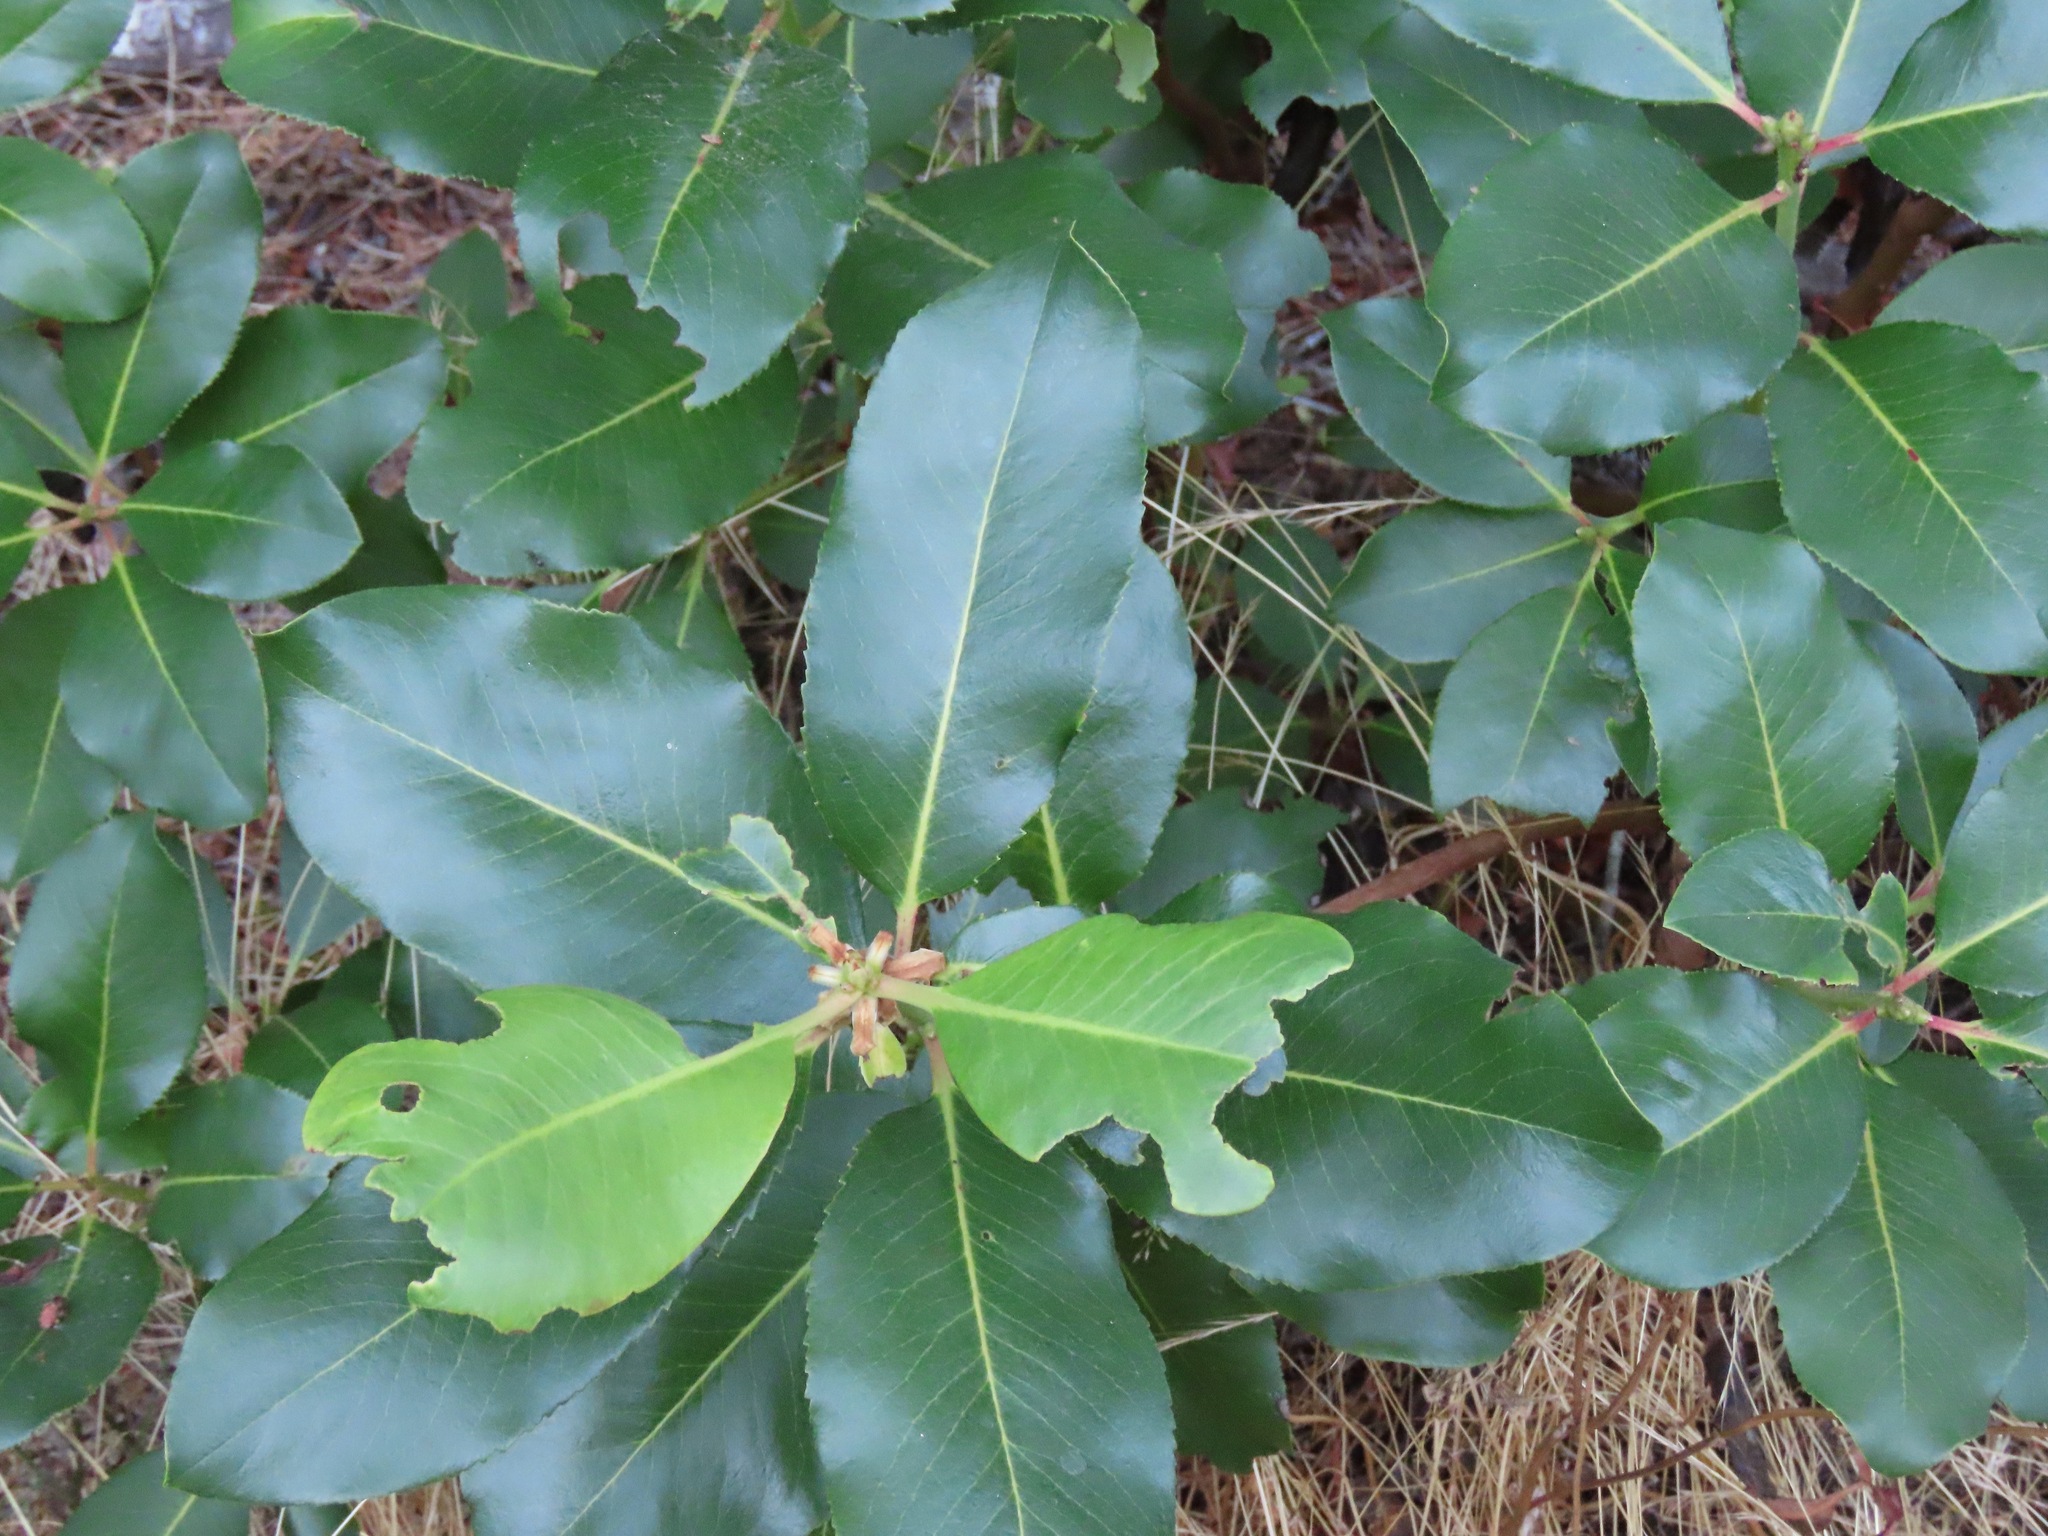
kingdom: Plantae
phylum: Tracheophyta
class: Magnoliopsida
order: Ericales
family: Ericaceae
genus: Arbutus
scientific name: Arbutus menziesii
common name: Pacific madrone
